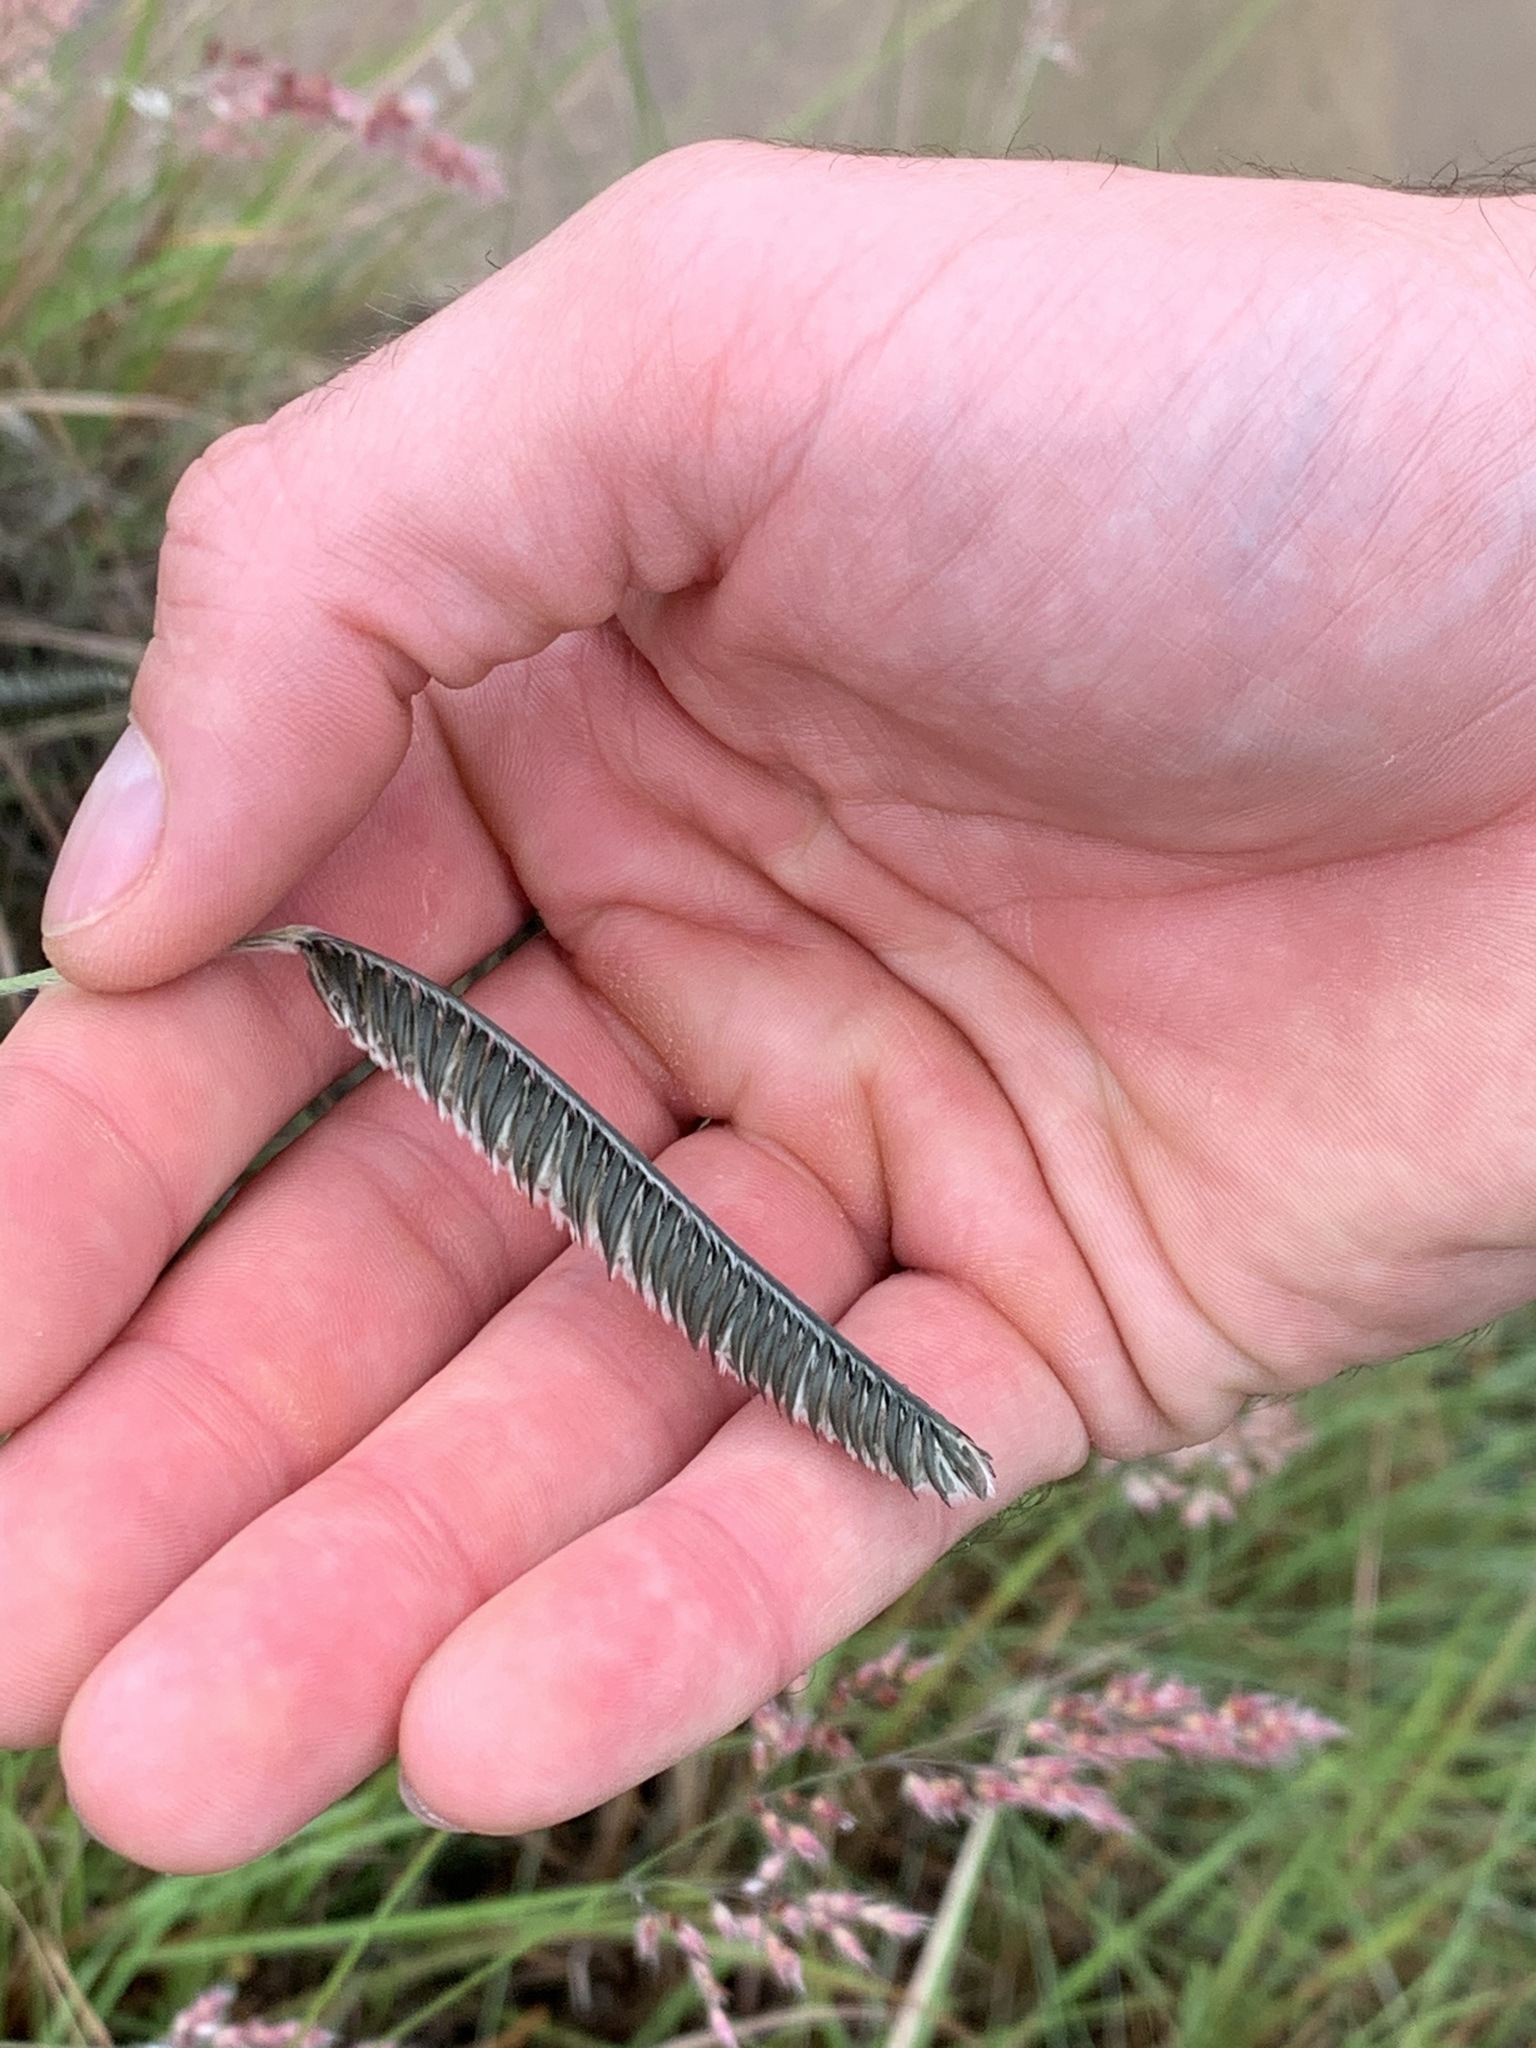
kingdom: Plantae
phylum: Tracheophyta
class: Liliopsida
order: Poales
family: Poaceae
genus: Harpochloa
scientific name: Harpochloa falx
